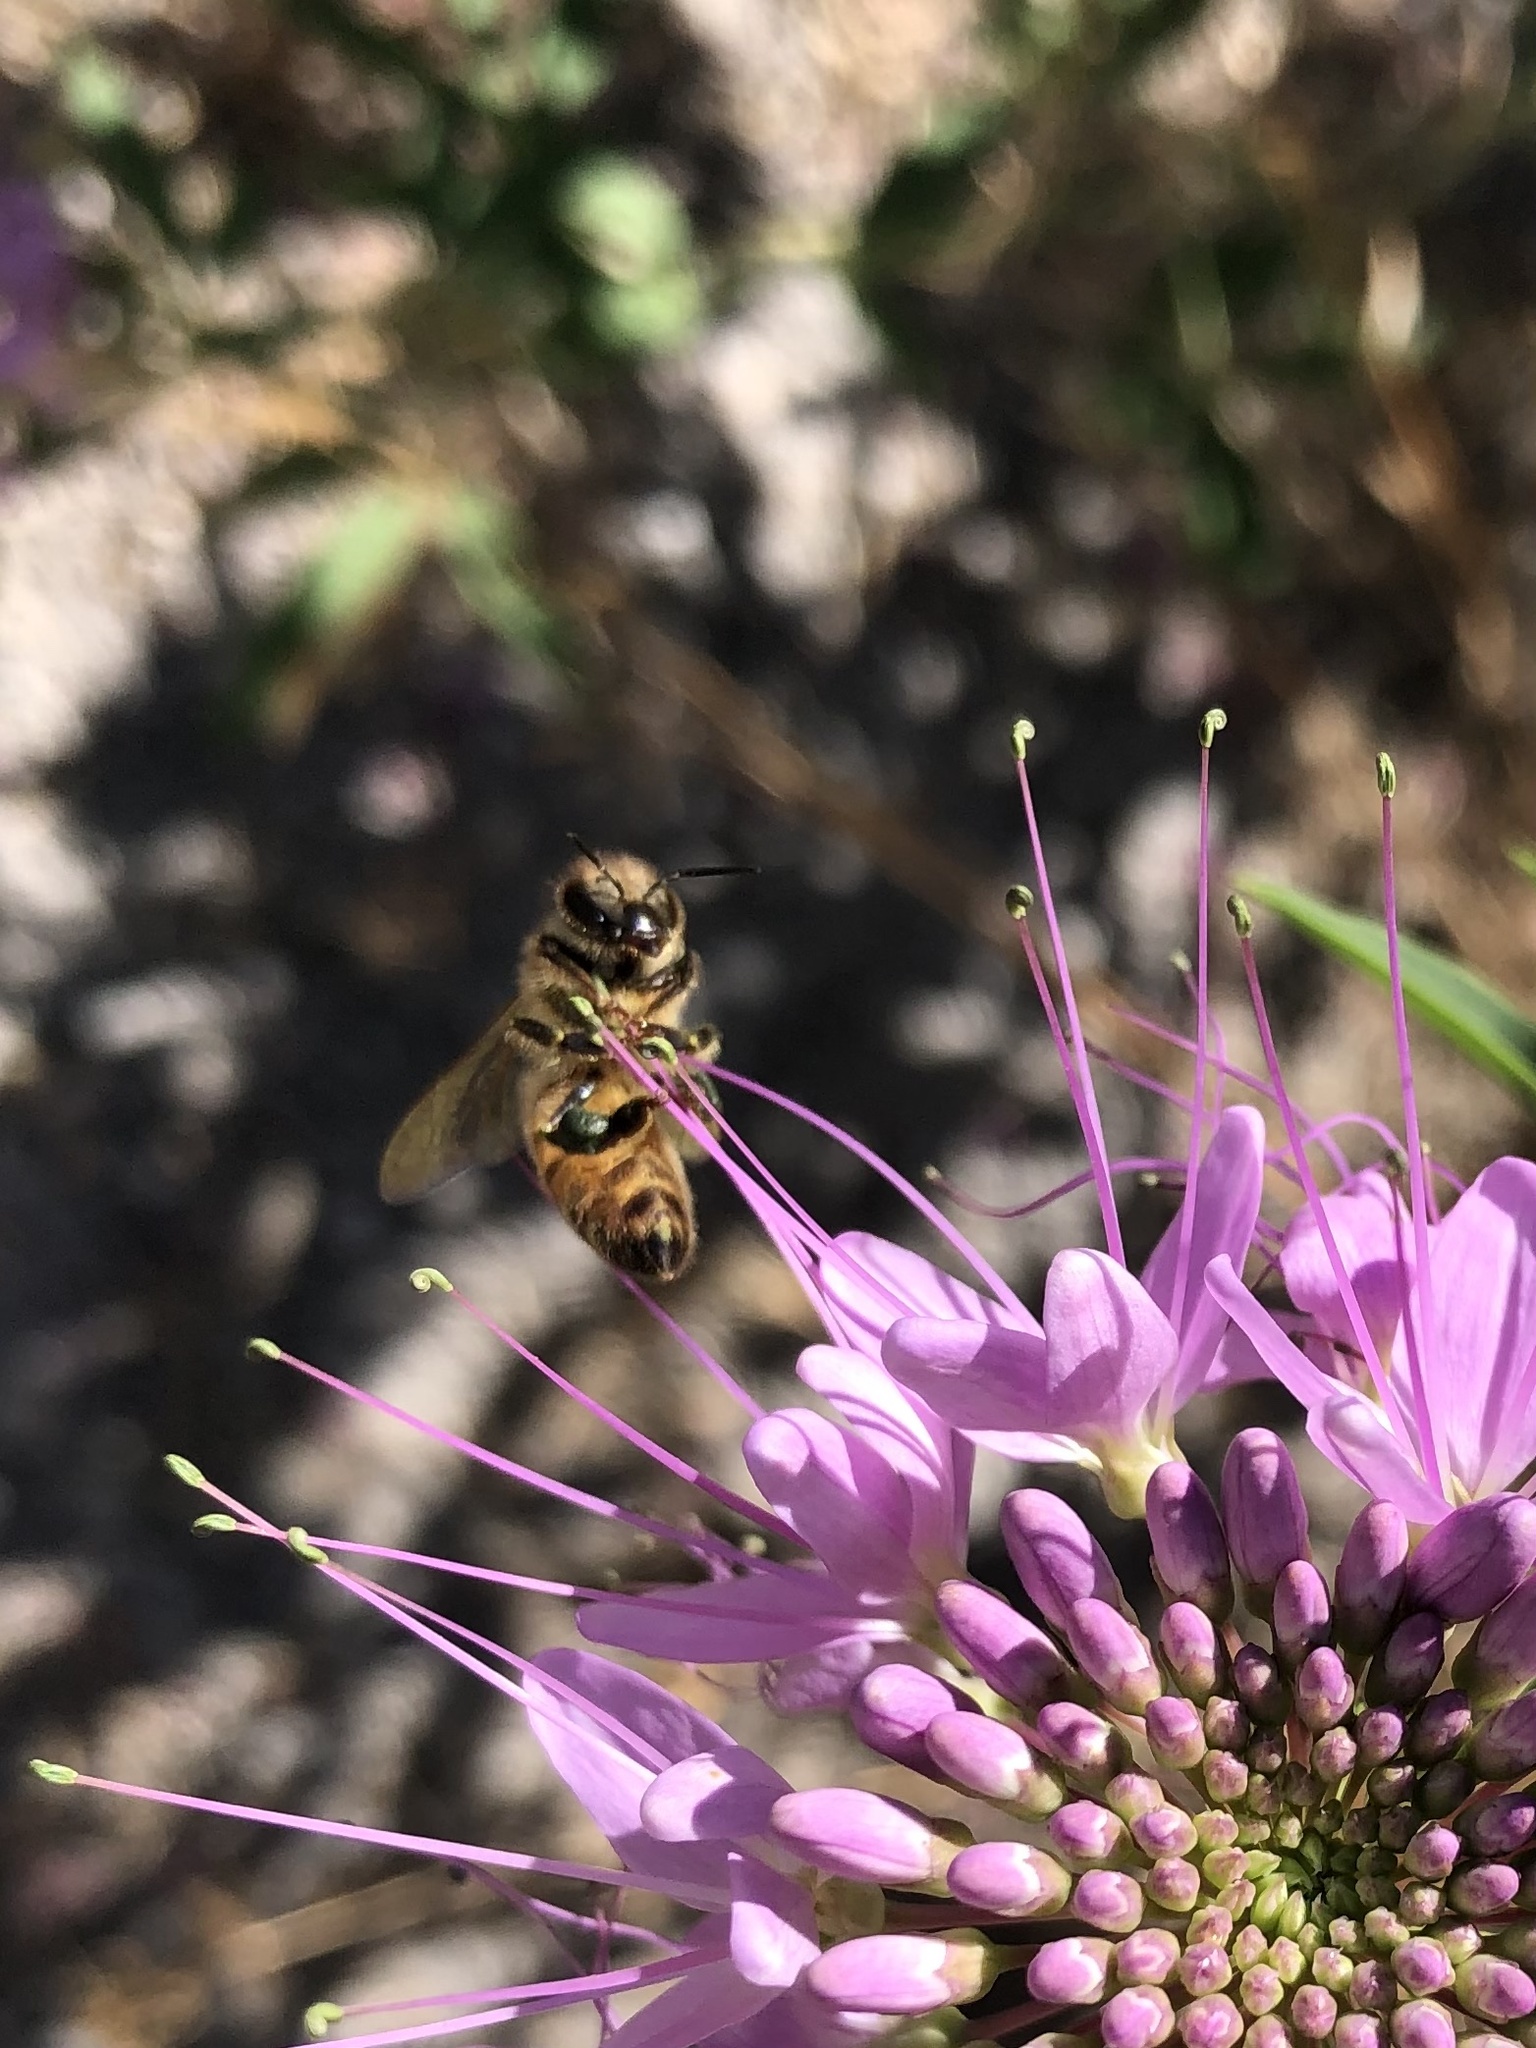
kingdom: Animalia
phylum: Arthropoda
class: Insecta
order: Hymenoptera
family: Apidae
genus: Apis
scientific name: Apis mellifera
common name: Honey bee
